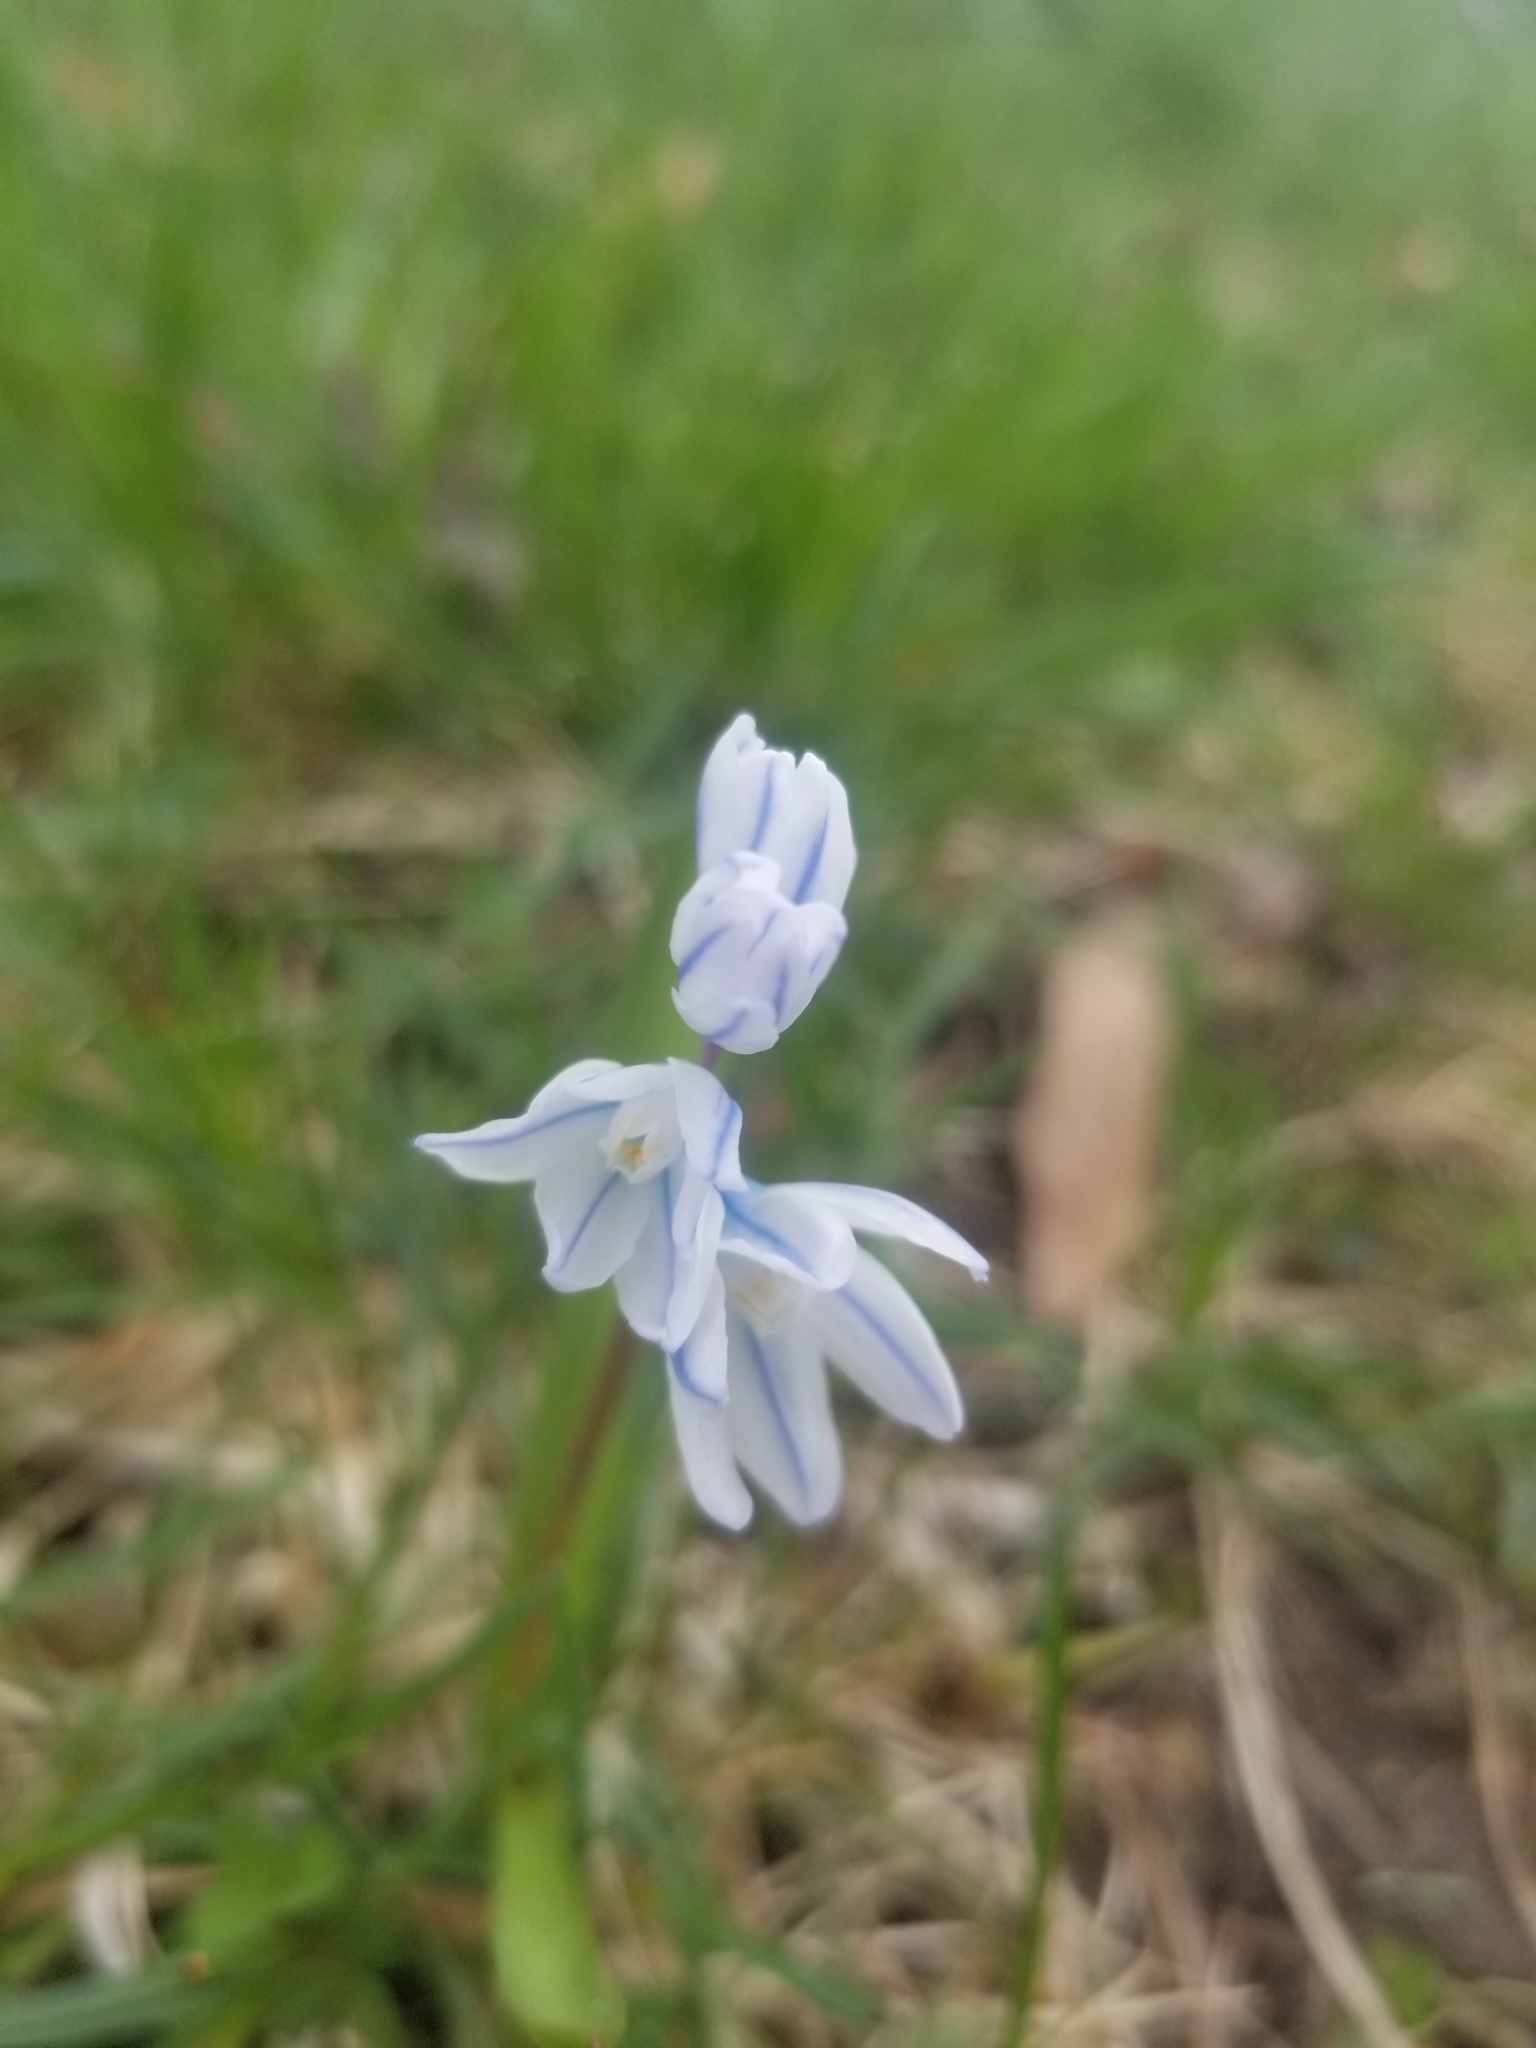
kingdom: Plantae
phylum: Tracheophyta
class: Liliopsida
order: Asparagales
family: Asparagaceae
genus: Puschkinia
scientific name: Puschkinia scilloides
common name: Striped squill
